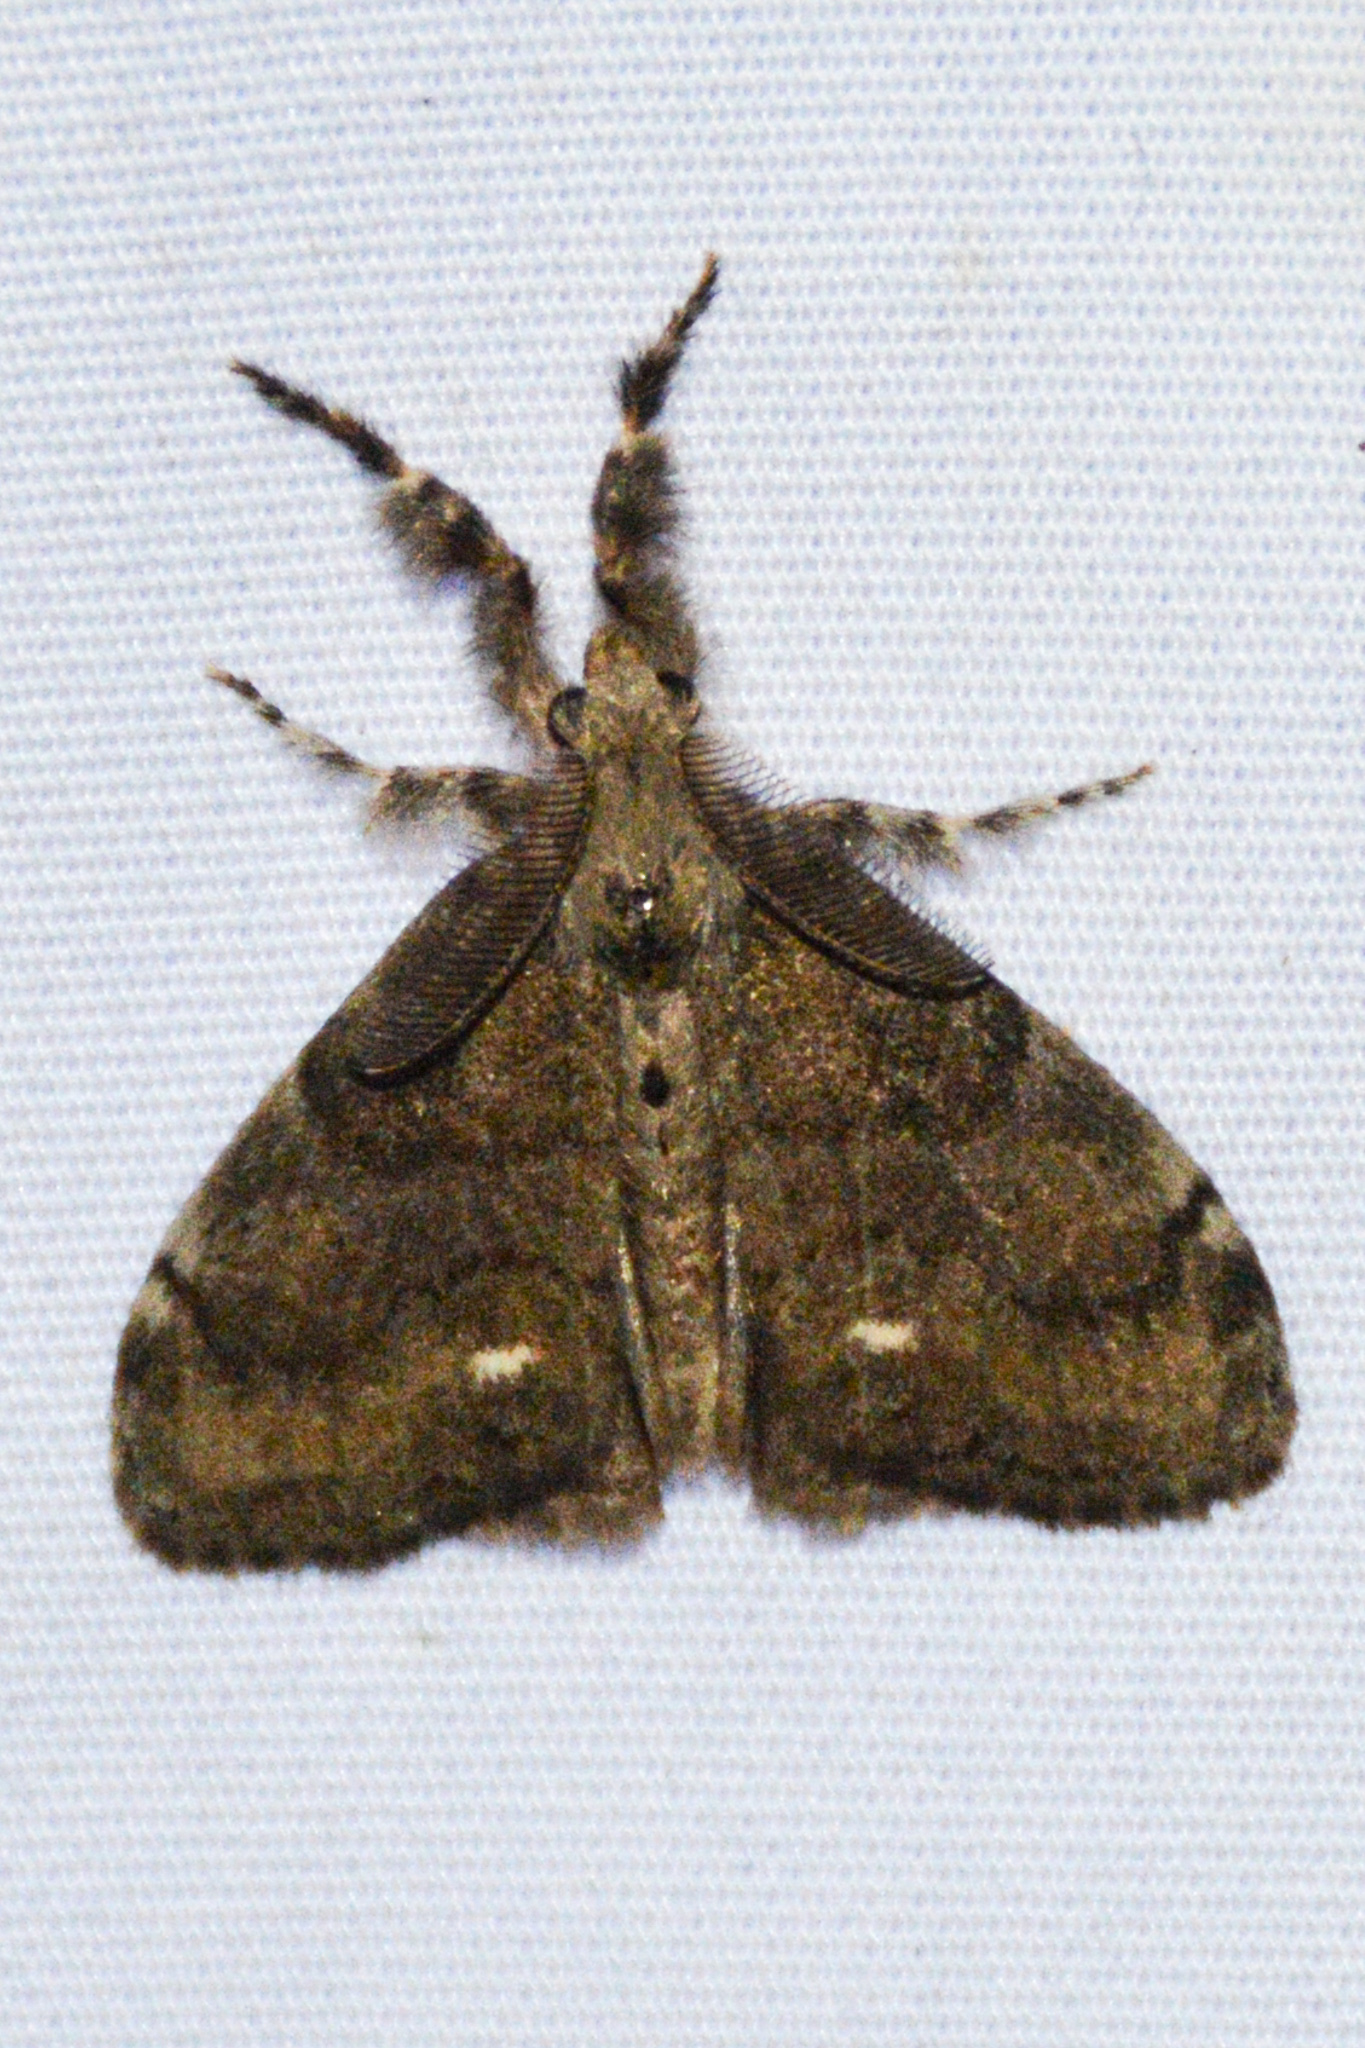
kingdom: Animalia
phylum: Arthropoda
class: Insecta
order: Lepidoptera
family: Erebidae
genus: Orgyia
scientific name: Orgyia leucostigma
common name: White-marked tussock moth
